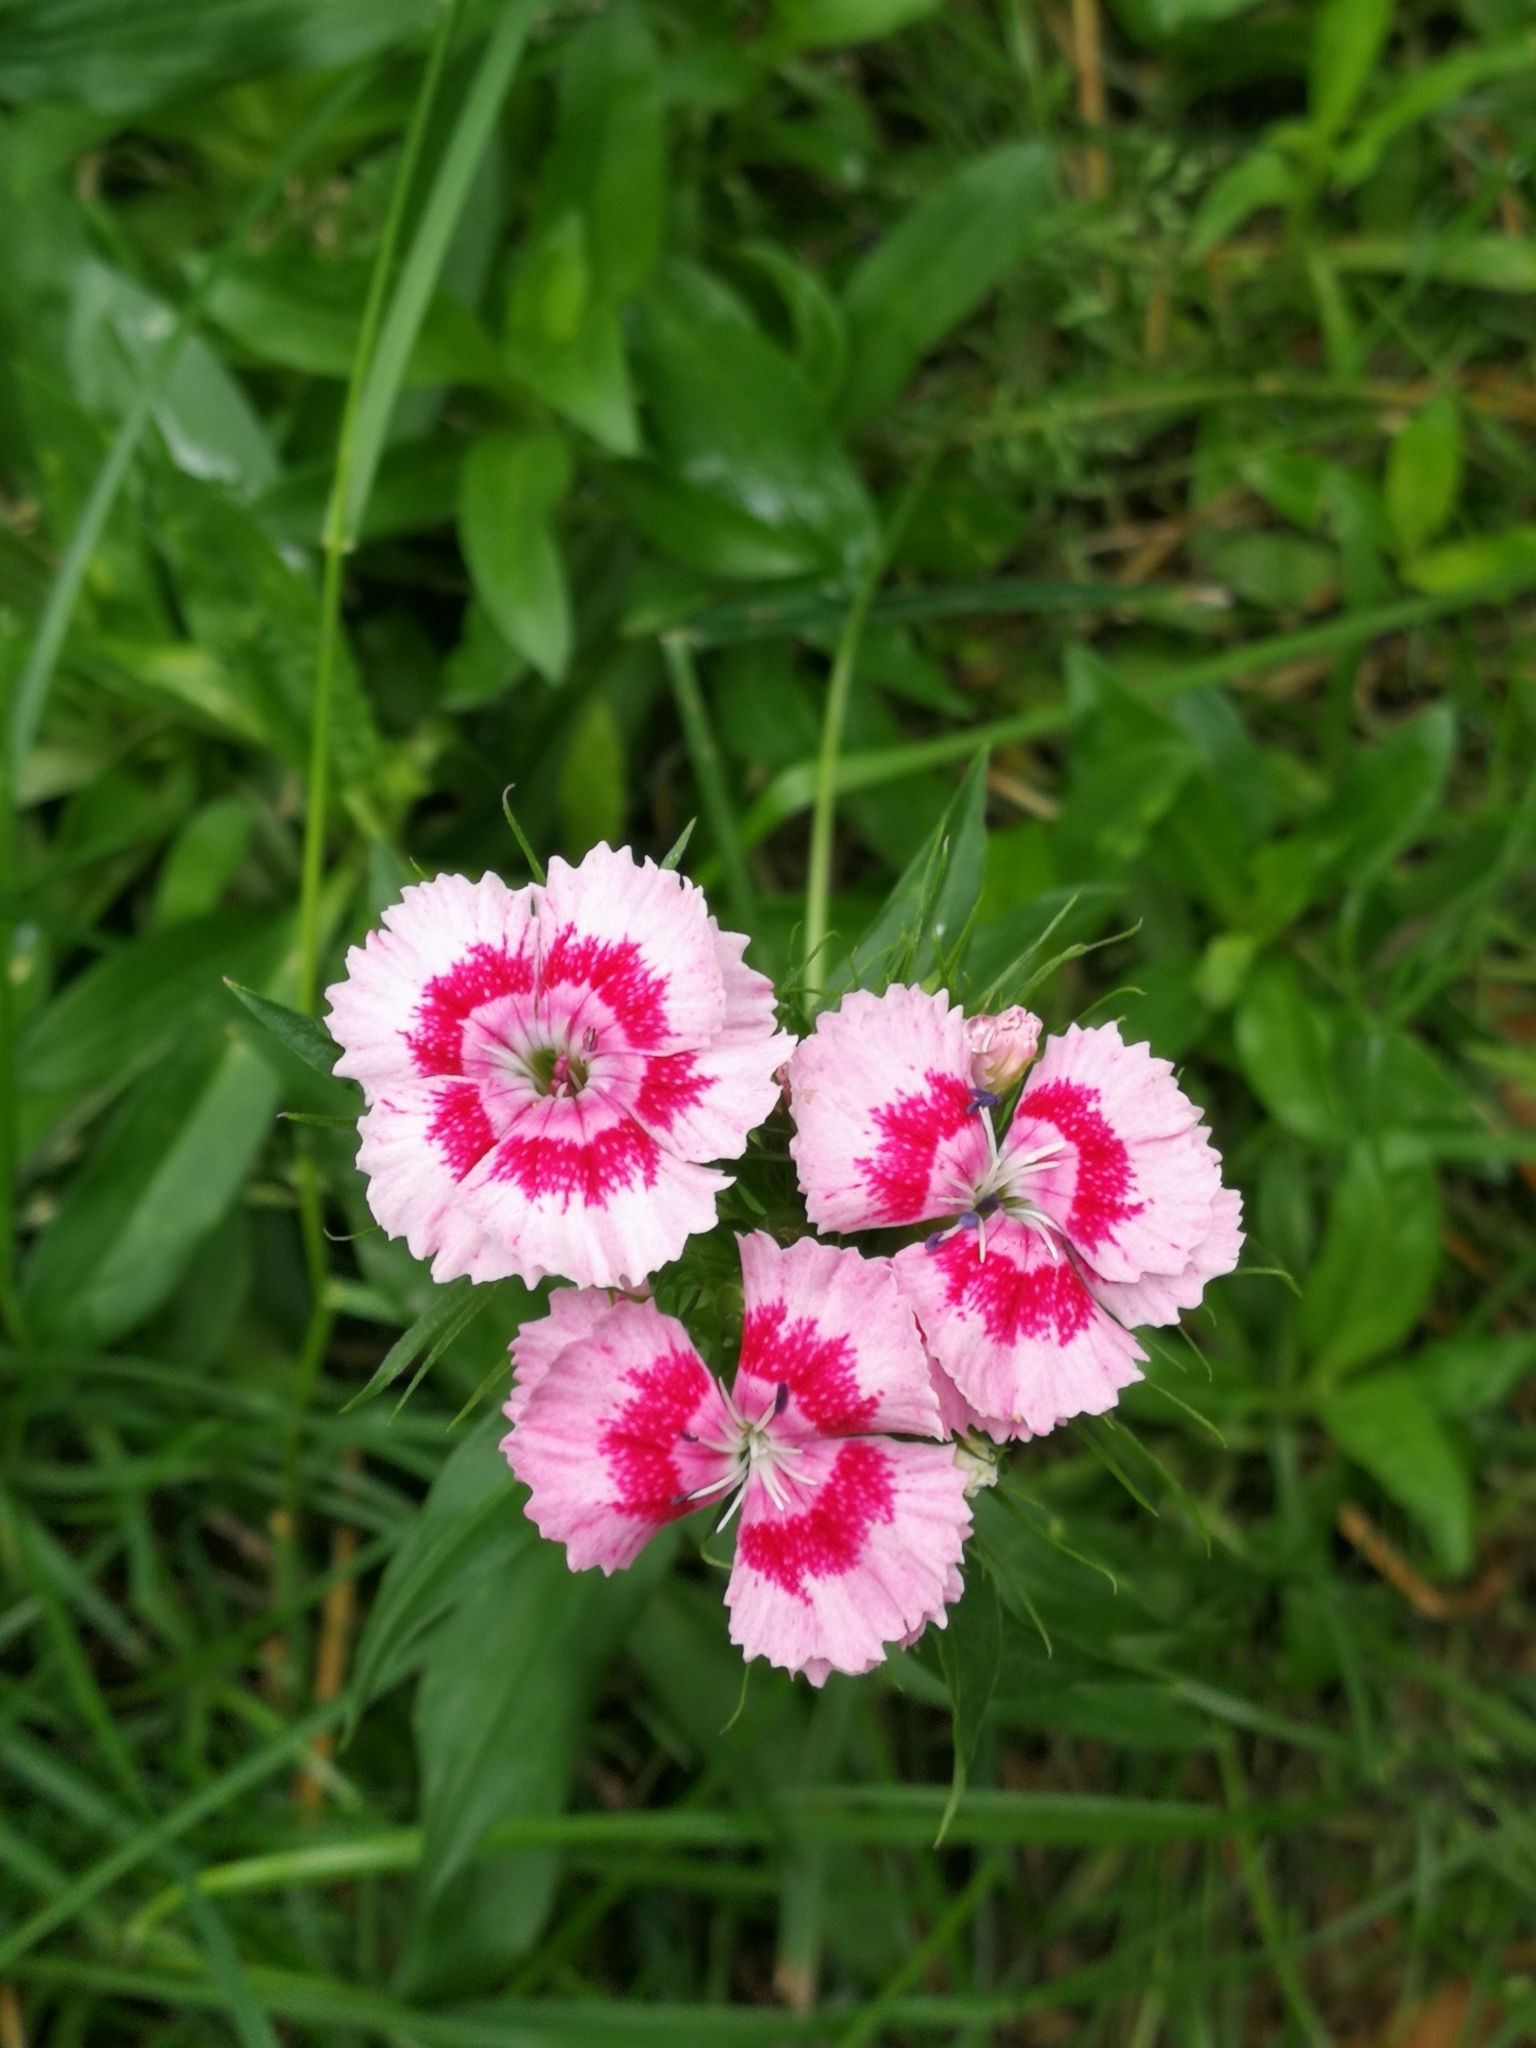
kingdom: Plantae
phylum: Tracheophyta
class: Magnoliopsida
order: Caryophyllales
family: Caryophyllaceae
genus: Dianthus
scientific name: Dianthus barbatus
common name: Sweet-william
